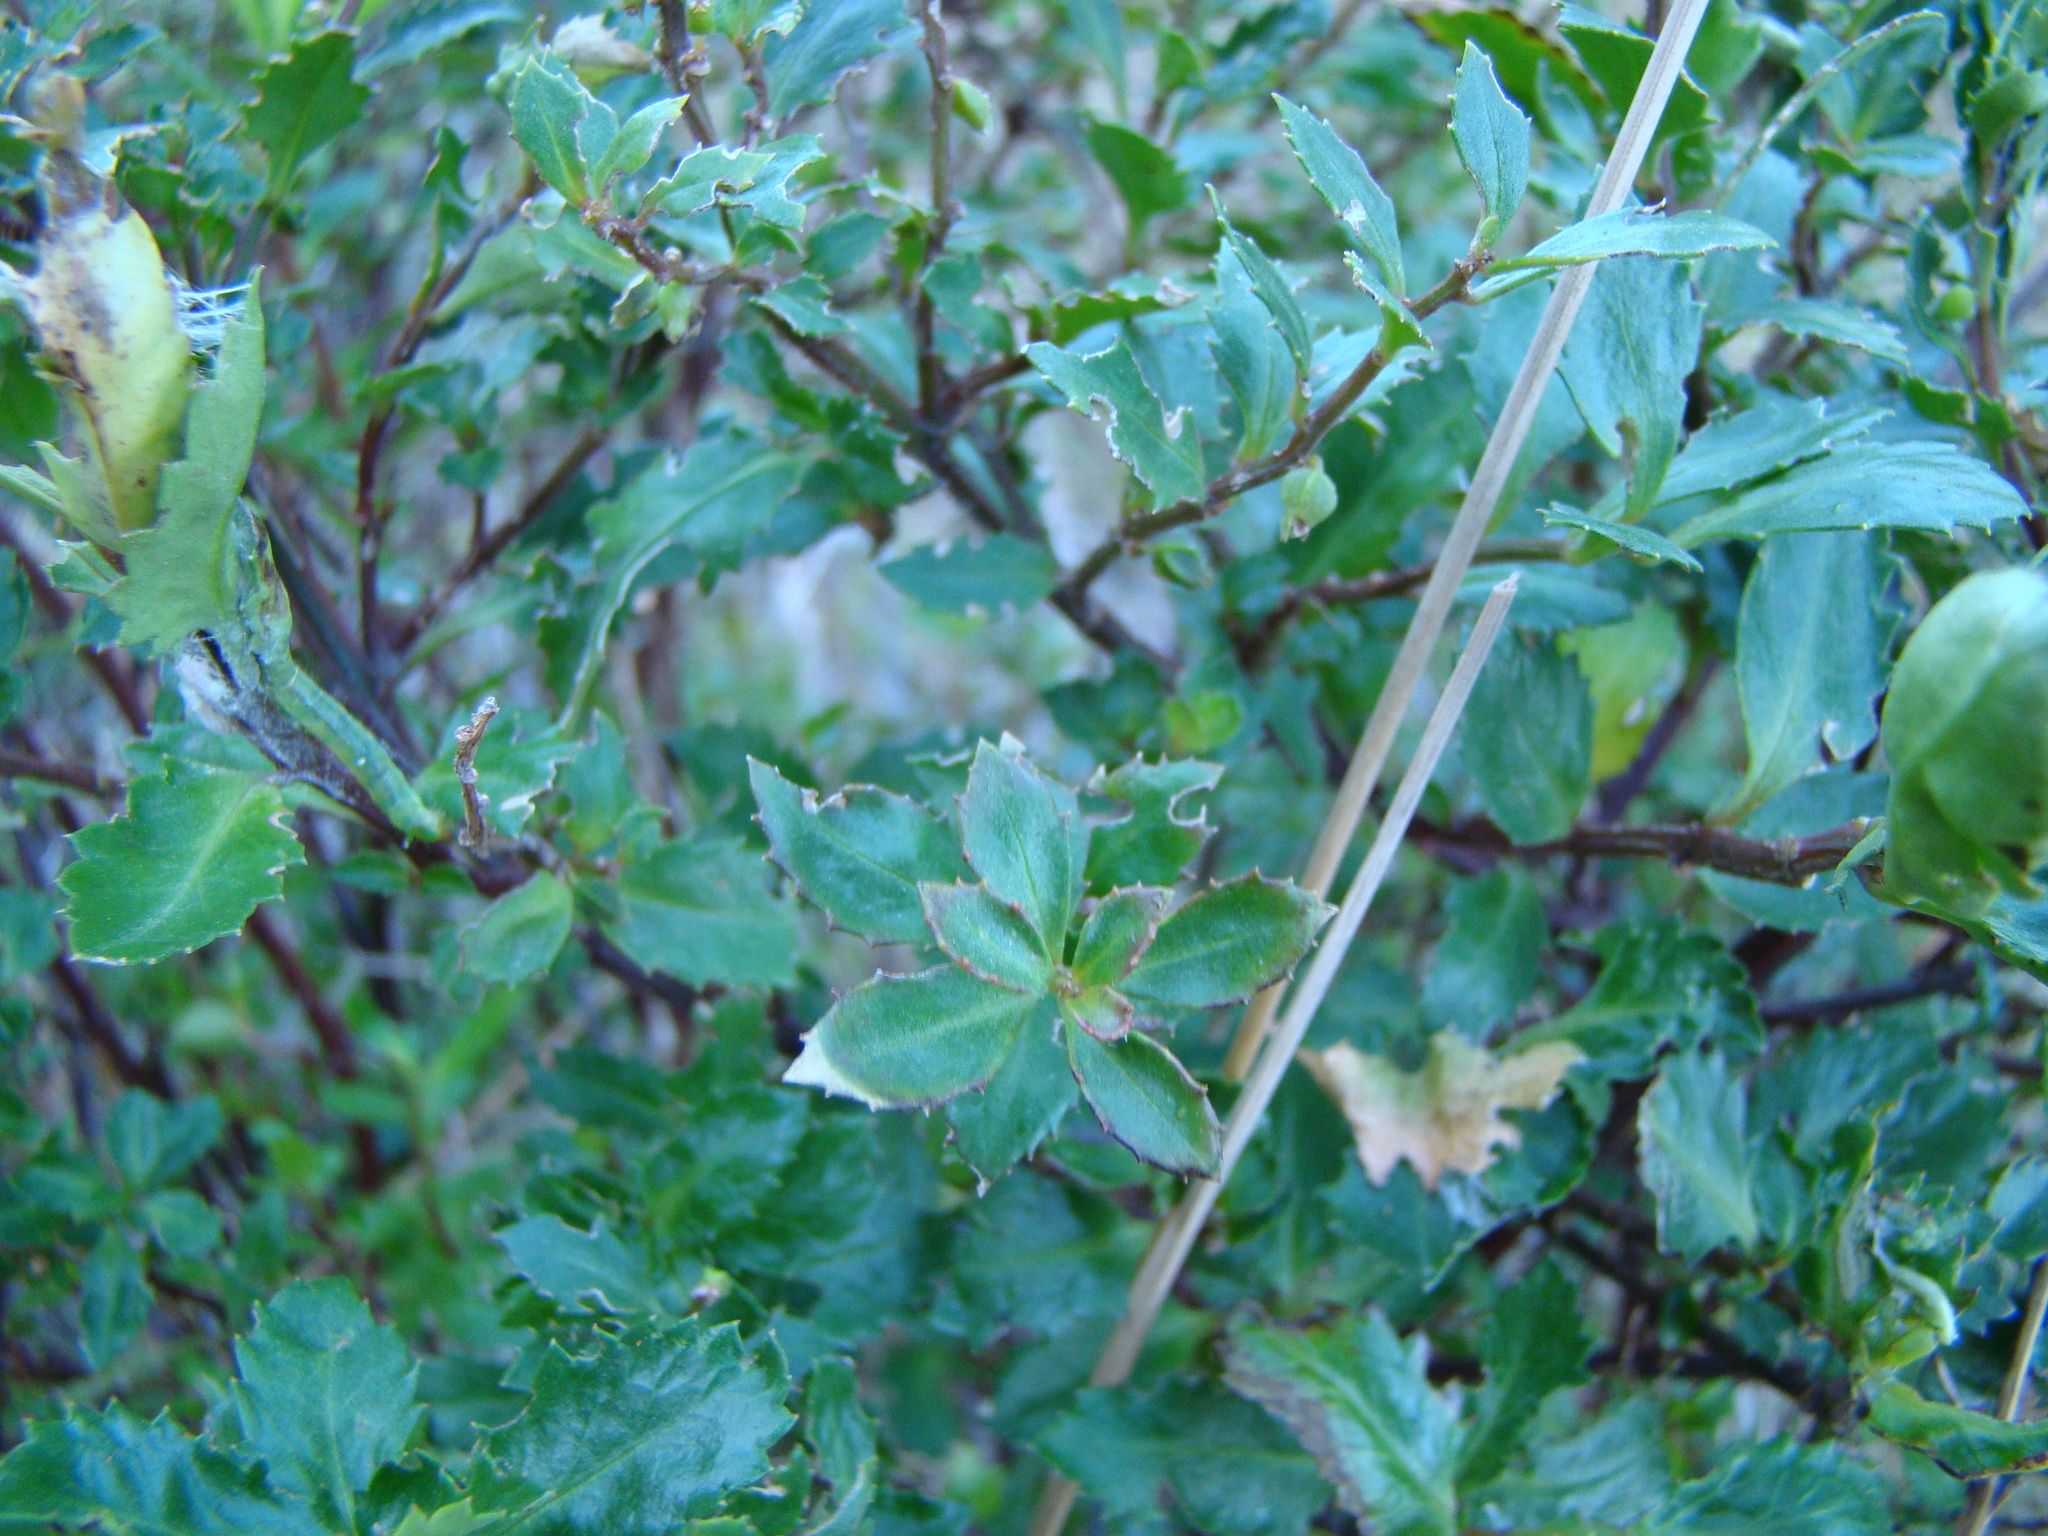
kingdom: Plantae
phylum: Tracheophyta
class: Magnoliopsida
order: Saxifragales
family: Haloragaceae
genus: Haloragis
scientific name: Haloragis erecta
